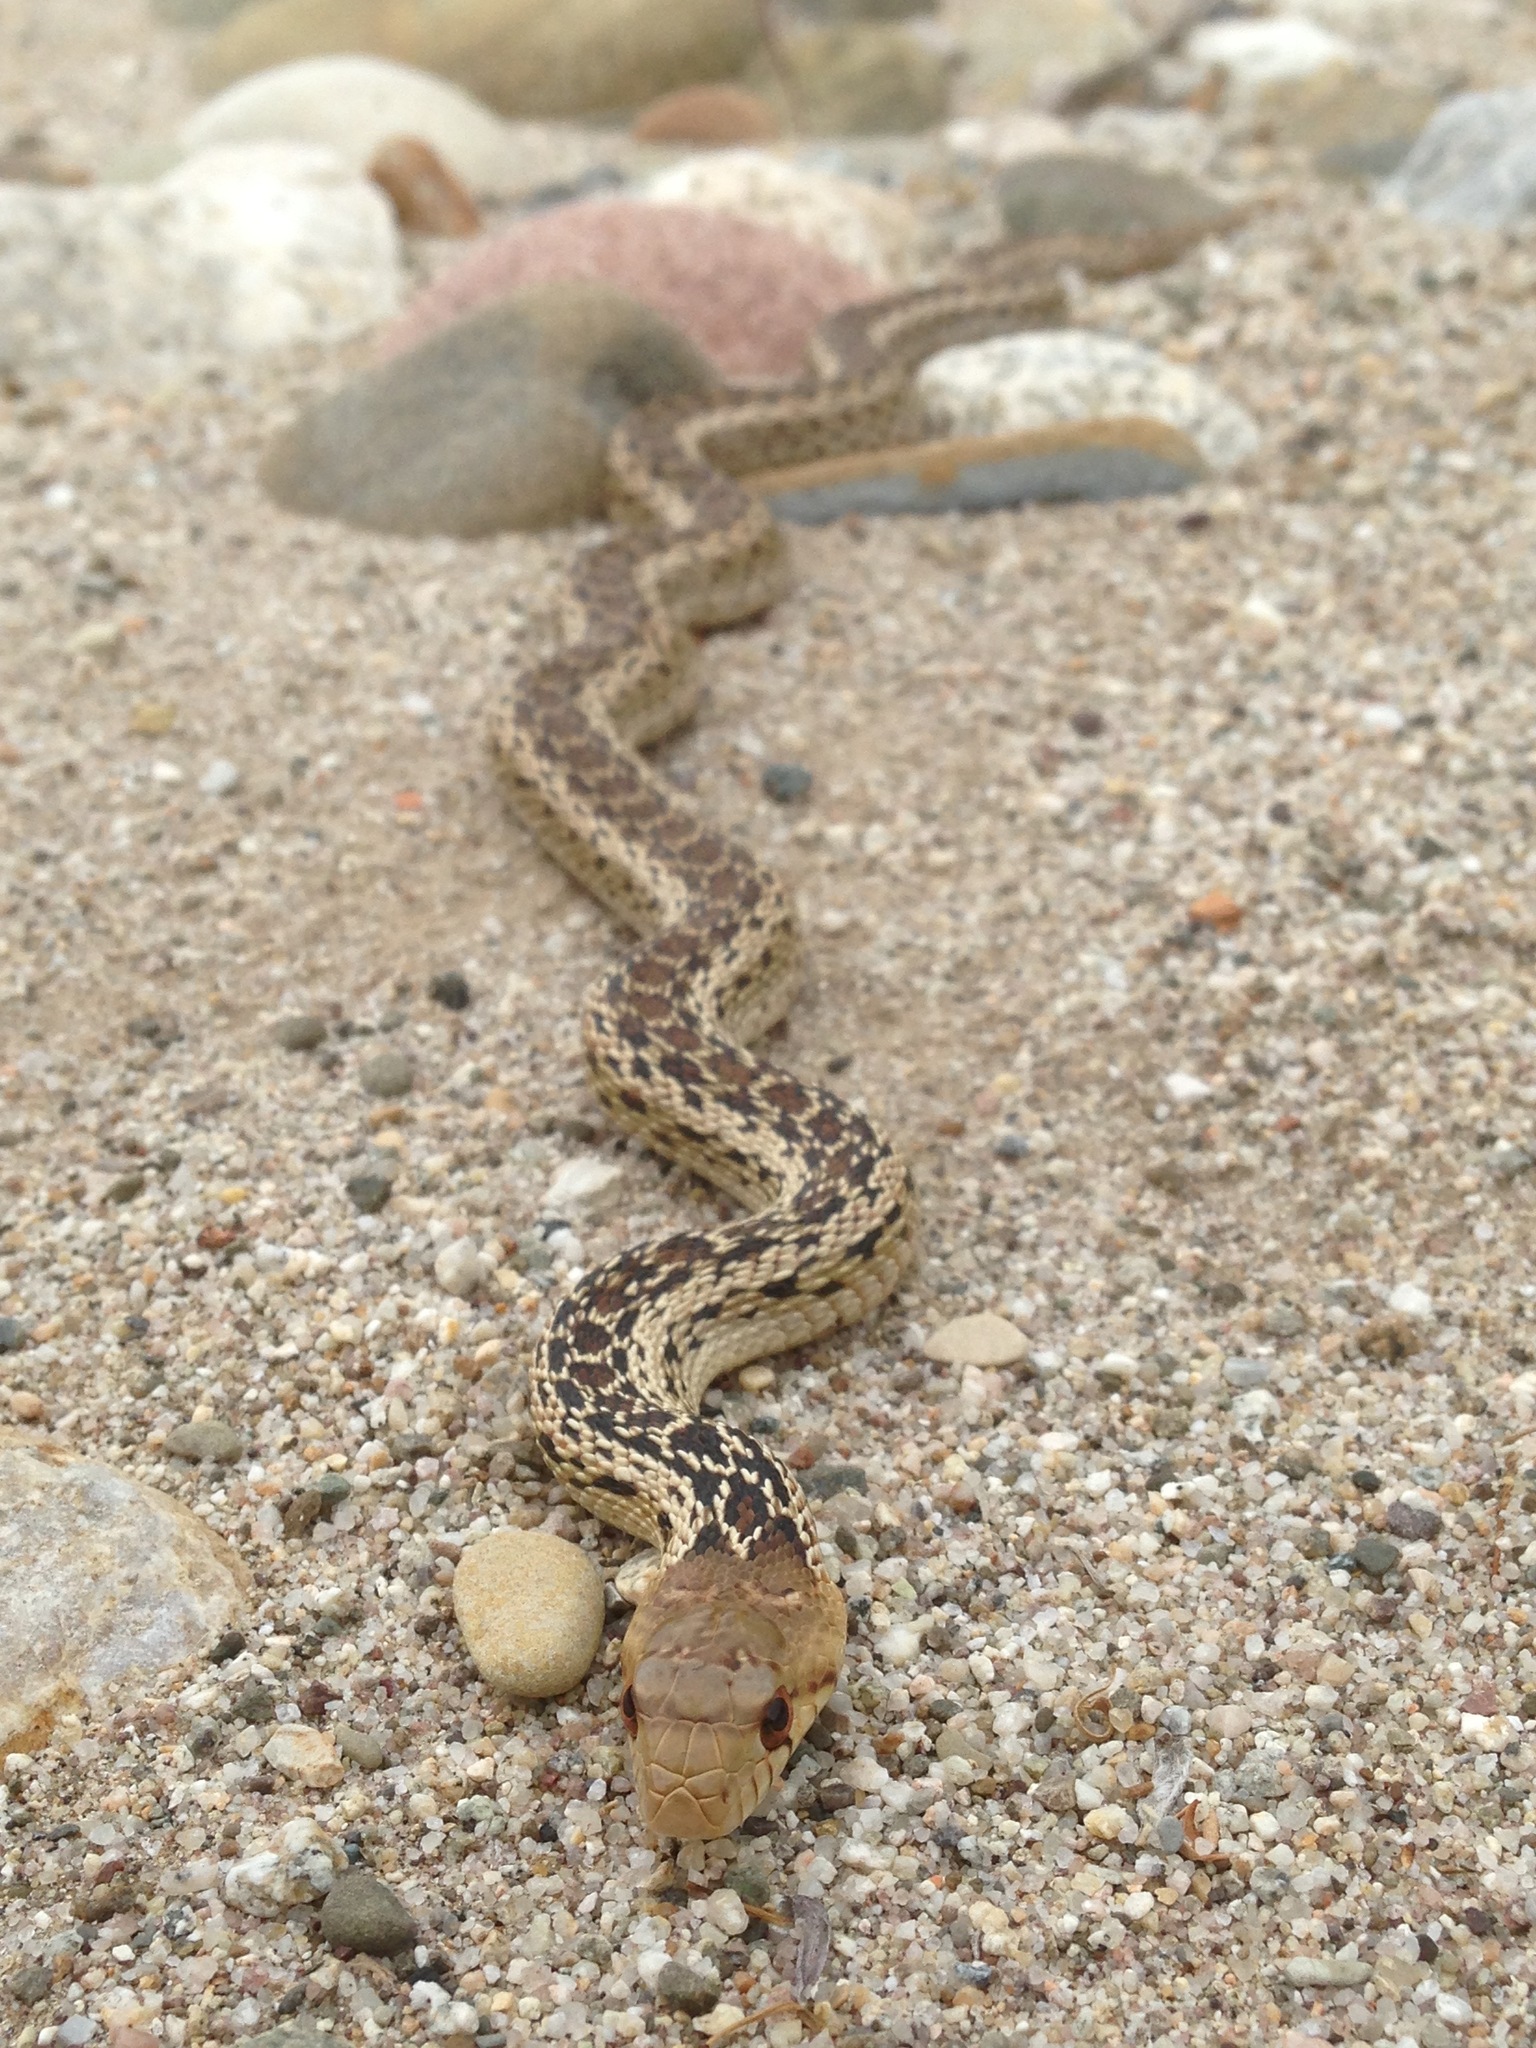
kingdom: Animalia
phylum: Chordata
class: Squamata
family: Colubridae
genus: Pituophis
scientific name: Pituophis catenifer
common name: Gopher snake
